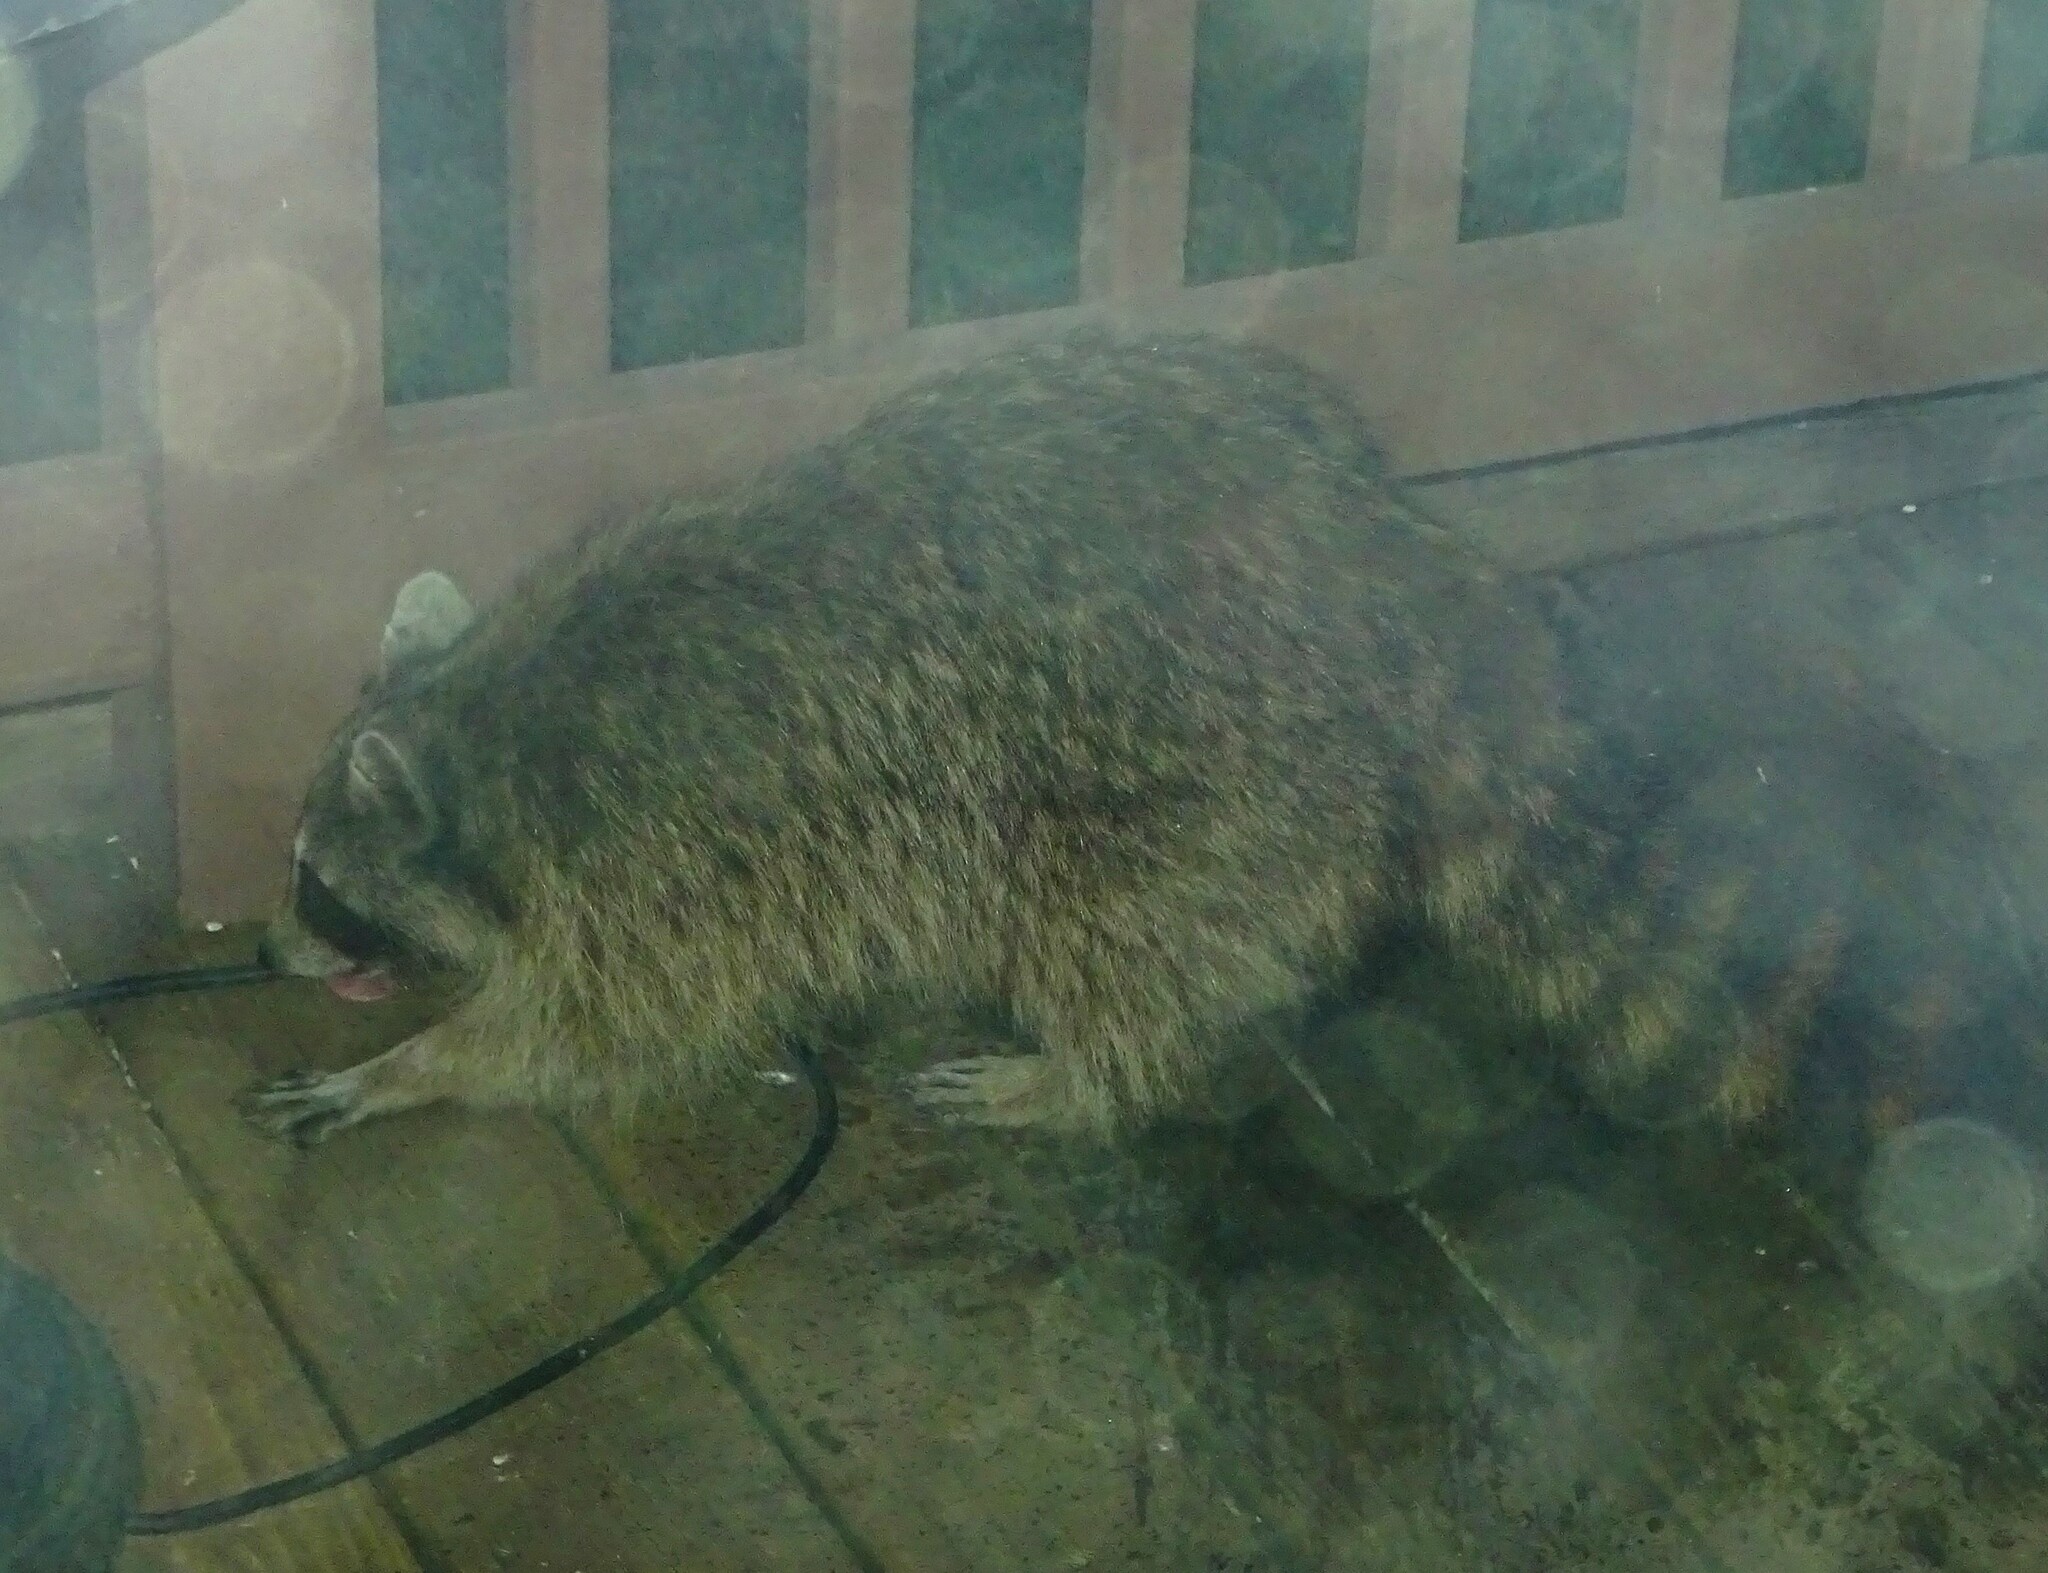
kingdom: Animalia
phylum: Chordata
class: Mammalia
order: Carnivora
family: Procyonidae
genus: Procyon
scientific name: Procyon lotor
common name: Raccoon
